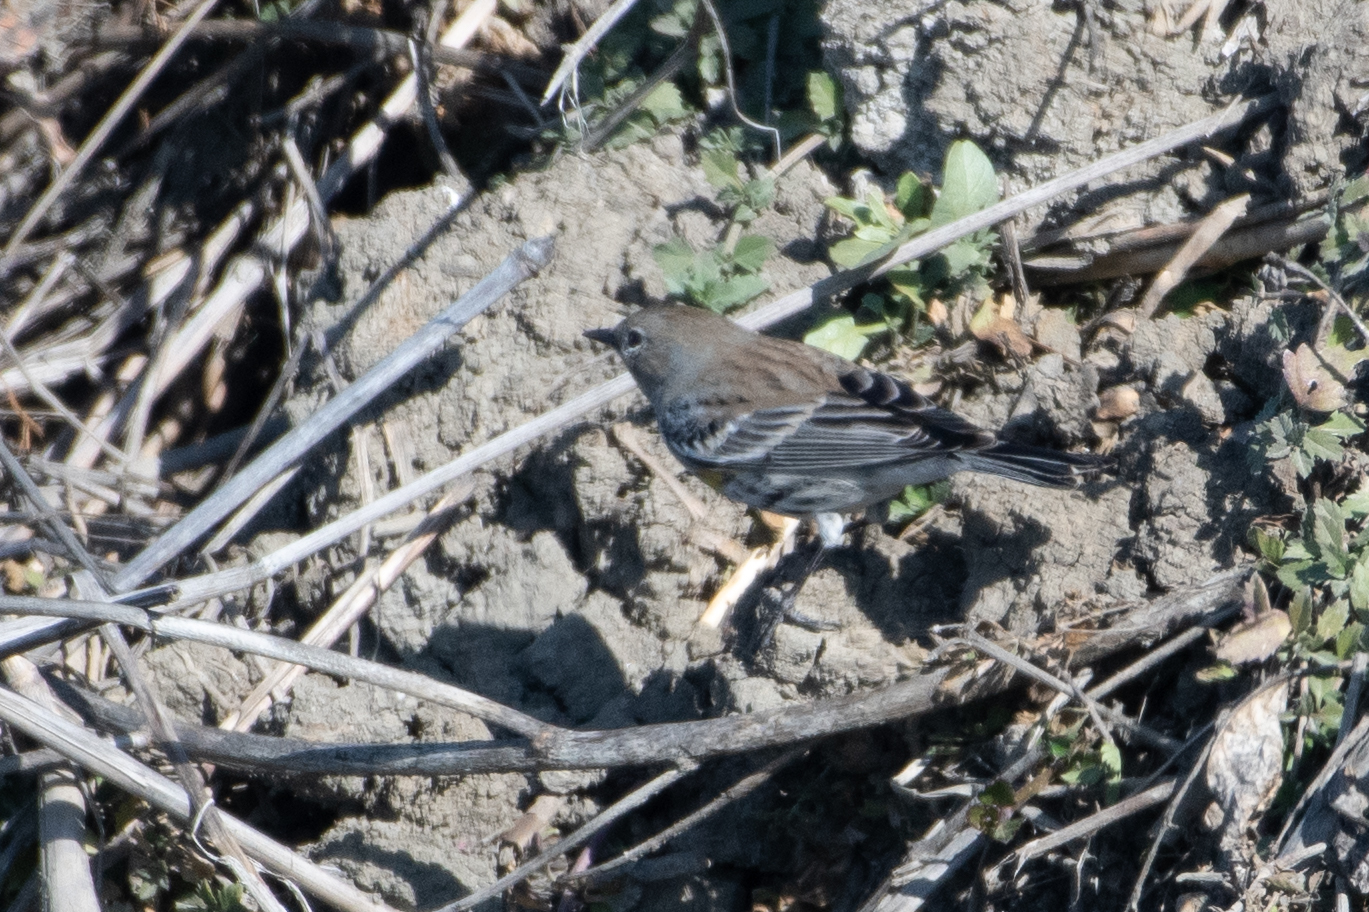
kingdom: Animalia
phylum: Chordata
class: Aves
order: Passeriformes
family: Parulidae
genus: Setophaga
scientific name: Setophaga coronata
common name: Myrtle warbler
